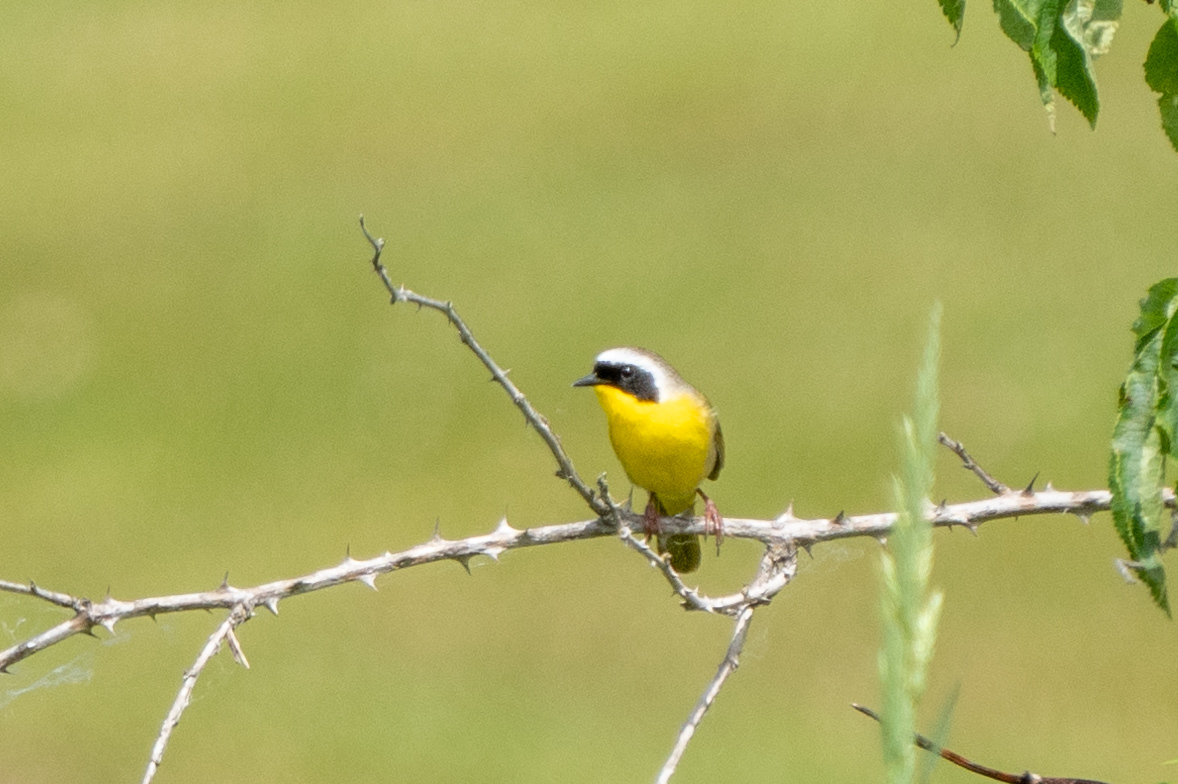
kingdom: Animalia
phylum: Chordata
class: Aves
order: Passeriformes
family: Parulidae
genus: Geothlypis
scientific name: Geothlypis trichas
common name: Common yellowthroat
